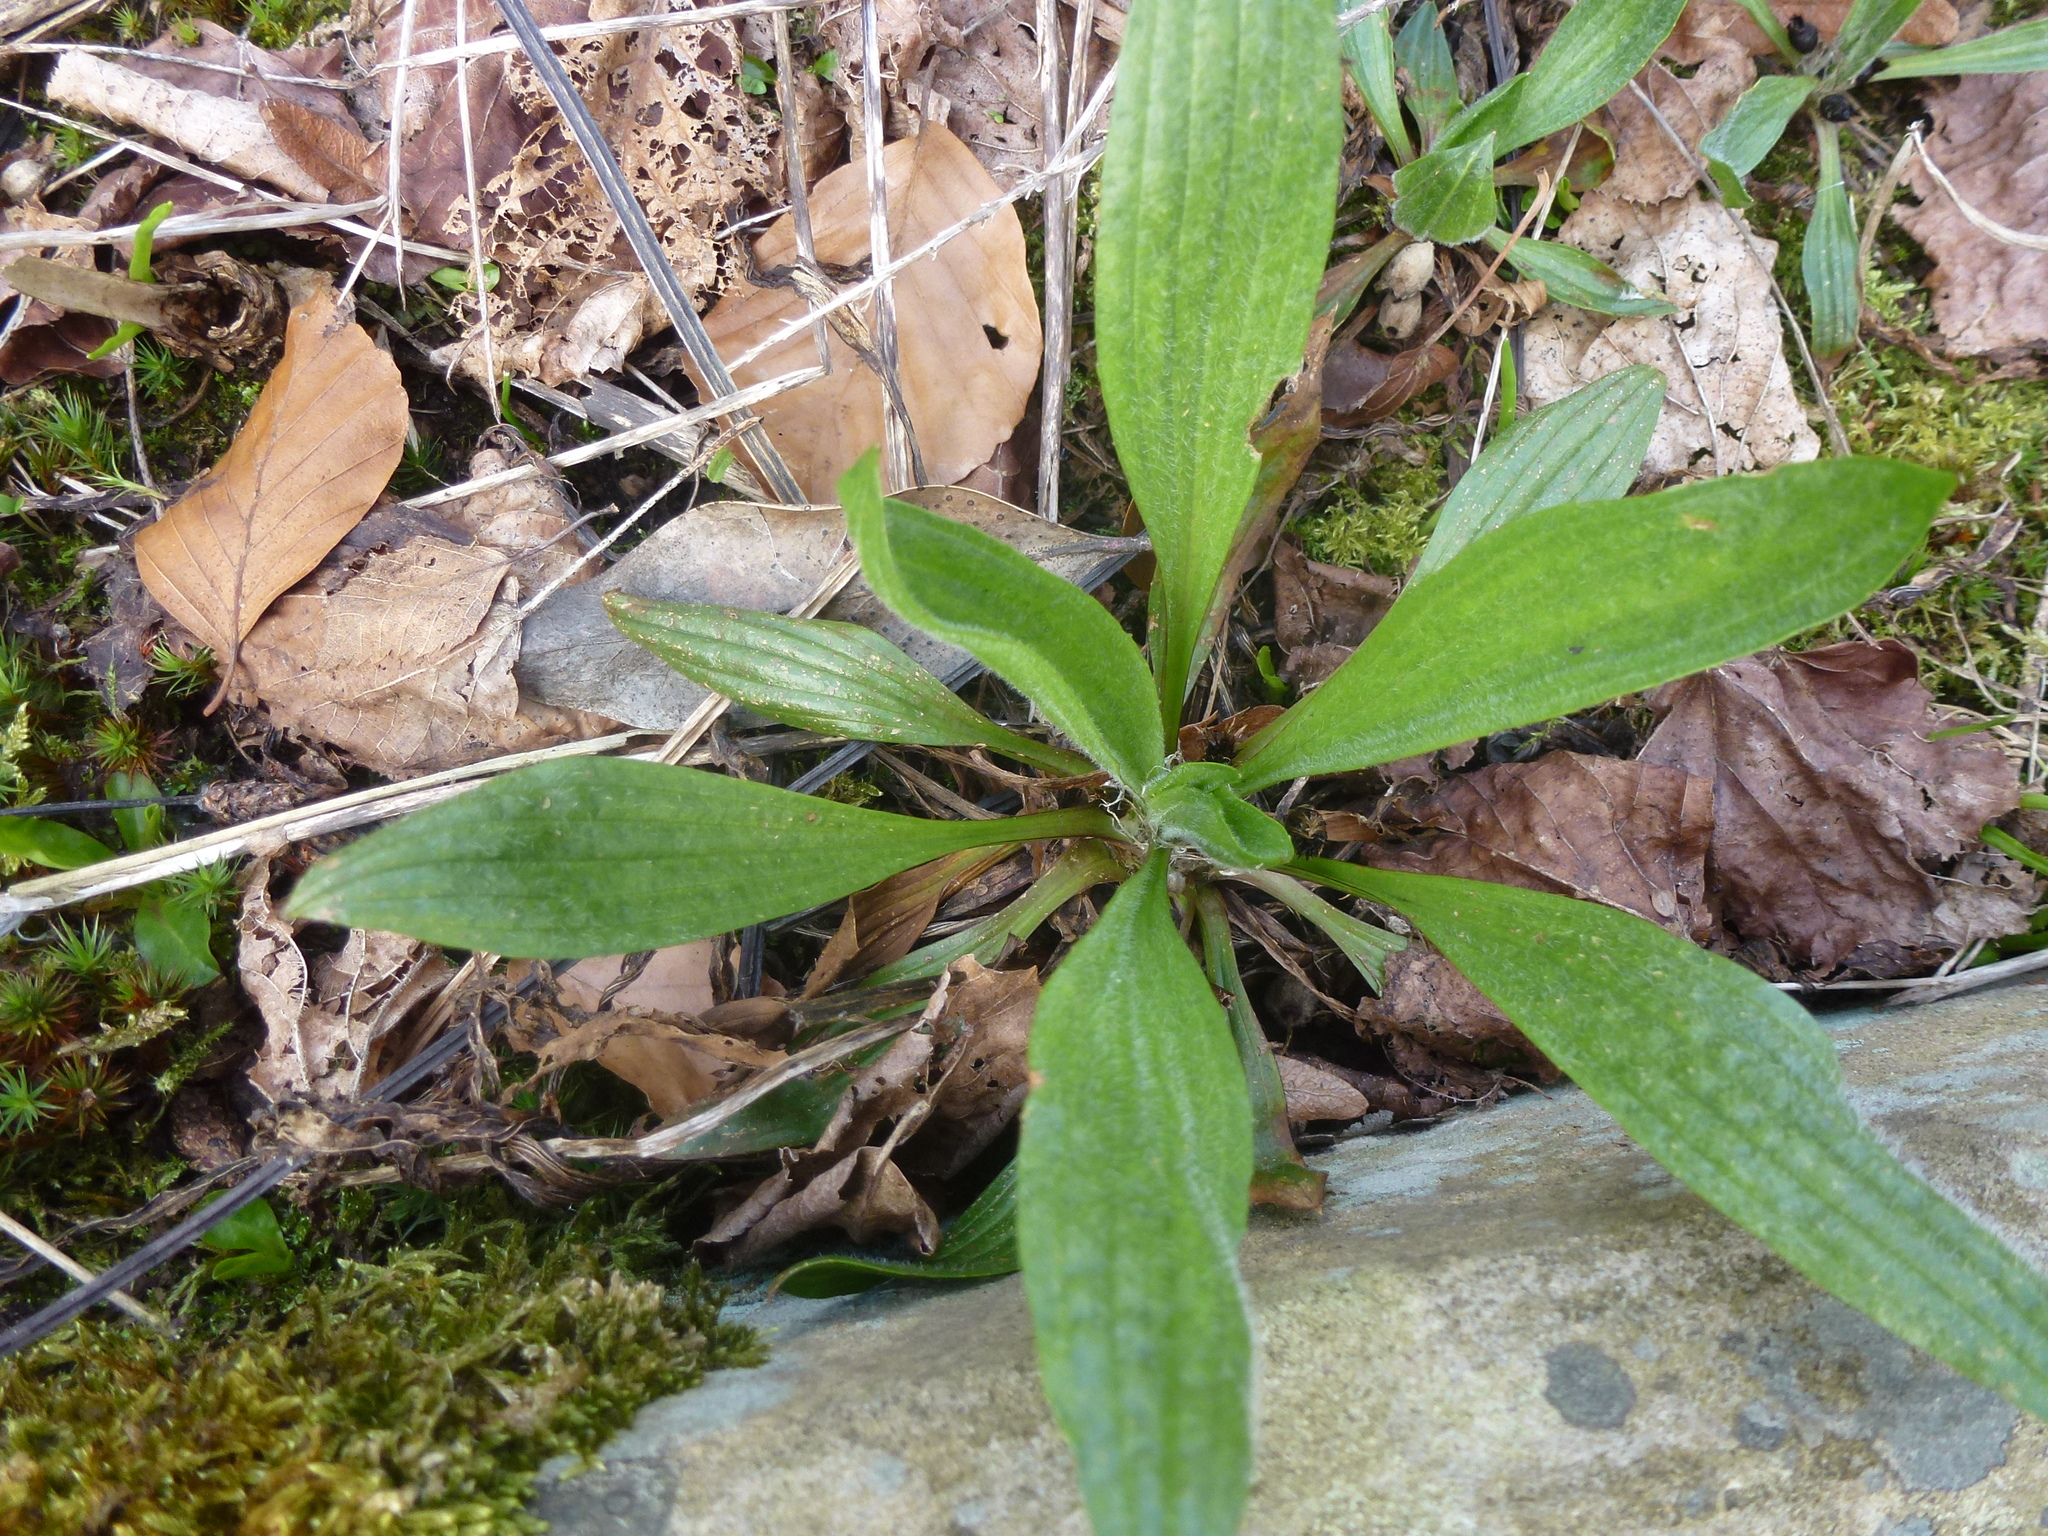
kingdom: Plantae
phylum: Tracheophyta
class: Magnoliopsida
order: Lamiales
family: Plantaginaceae
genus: Plantago
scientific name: Plantago lanceolata
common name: Ribwort plantain
